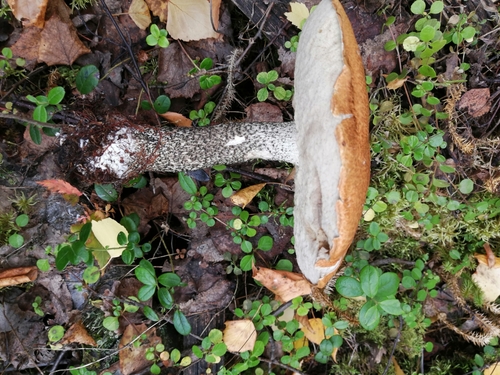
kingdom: Fungi
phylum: Basidiomycota
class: Agaricomycetes
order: Boletales
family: Boletaceae
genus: Leccinum
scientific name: Leccinum versipelle
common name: Orange birch bolete
